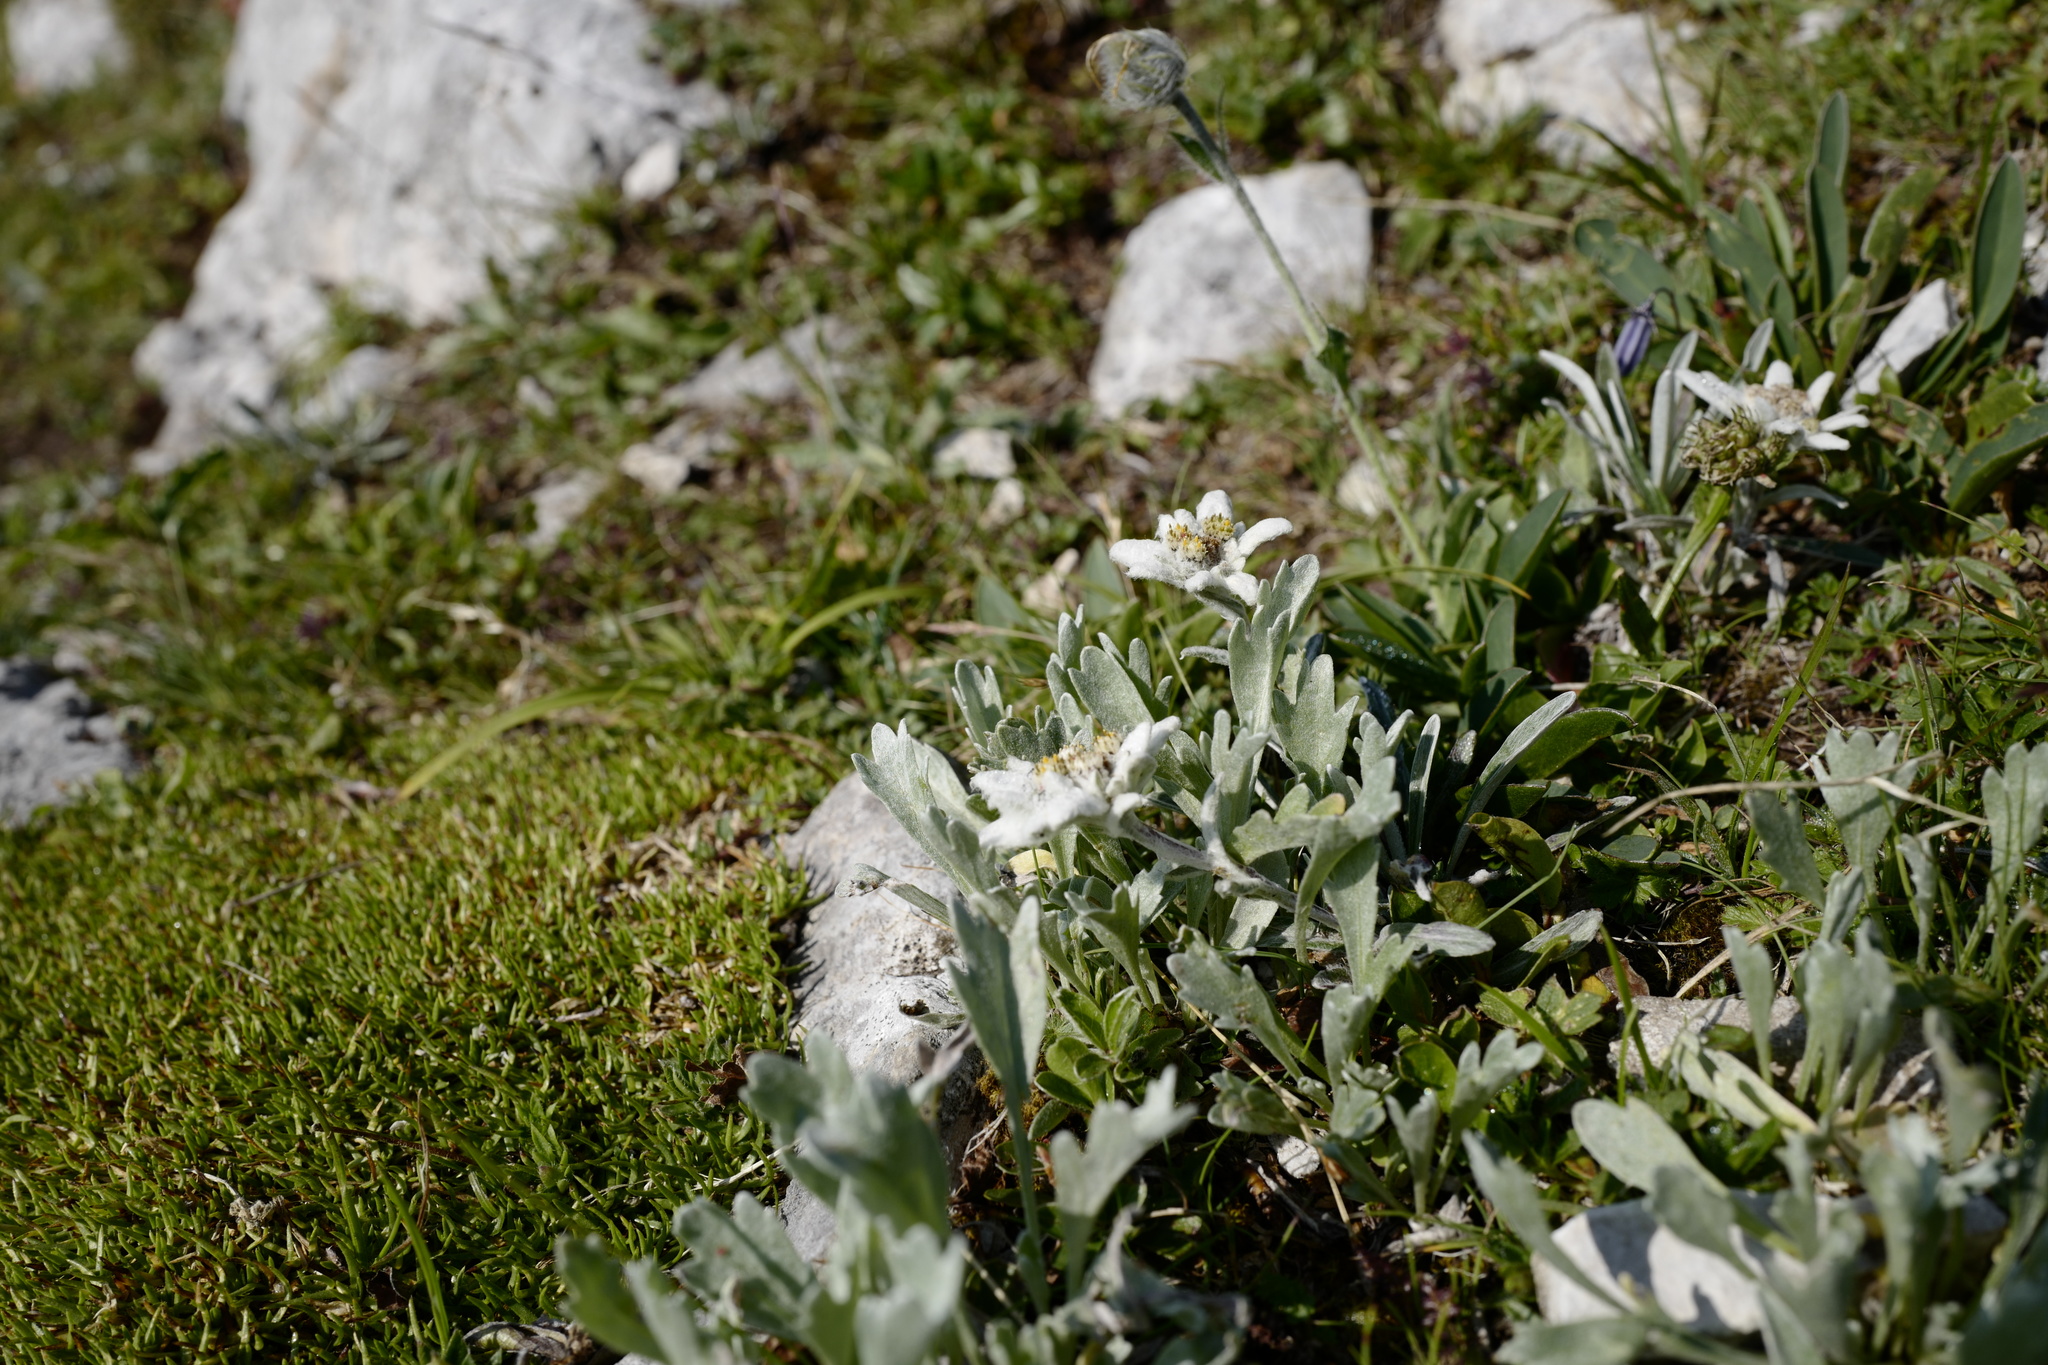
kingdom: Plantae
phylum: Tracheophyta
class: Magnoliopsida
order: Asterales
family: Asteraceae
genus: Leontopodium
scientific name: Leontopodium nivale
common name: Edelweiss
